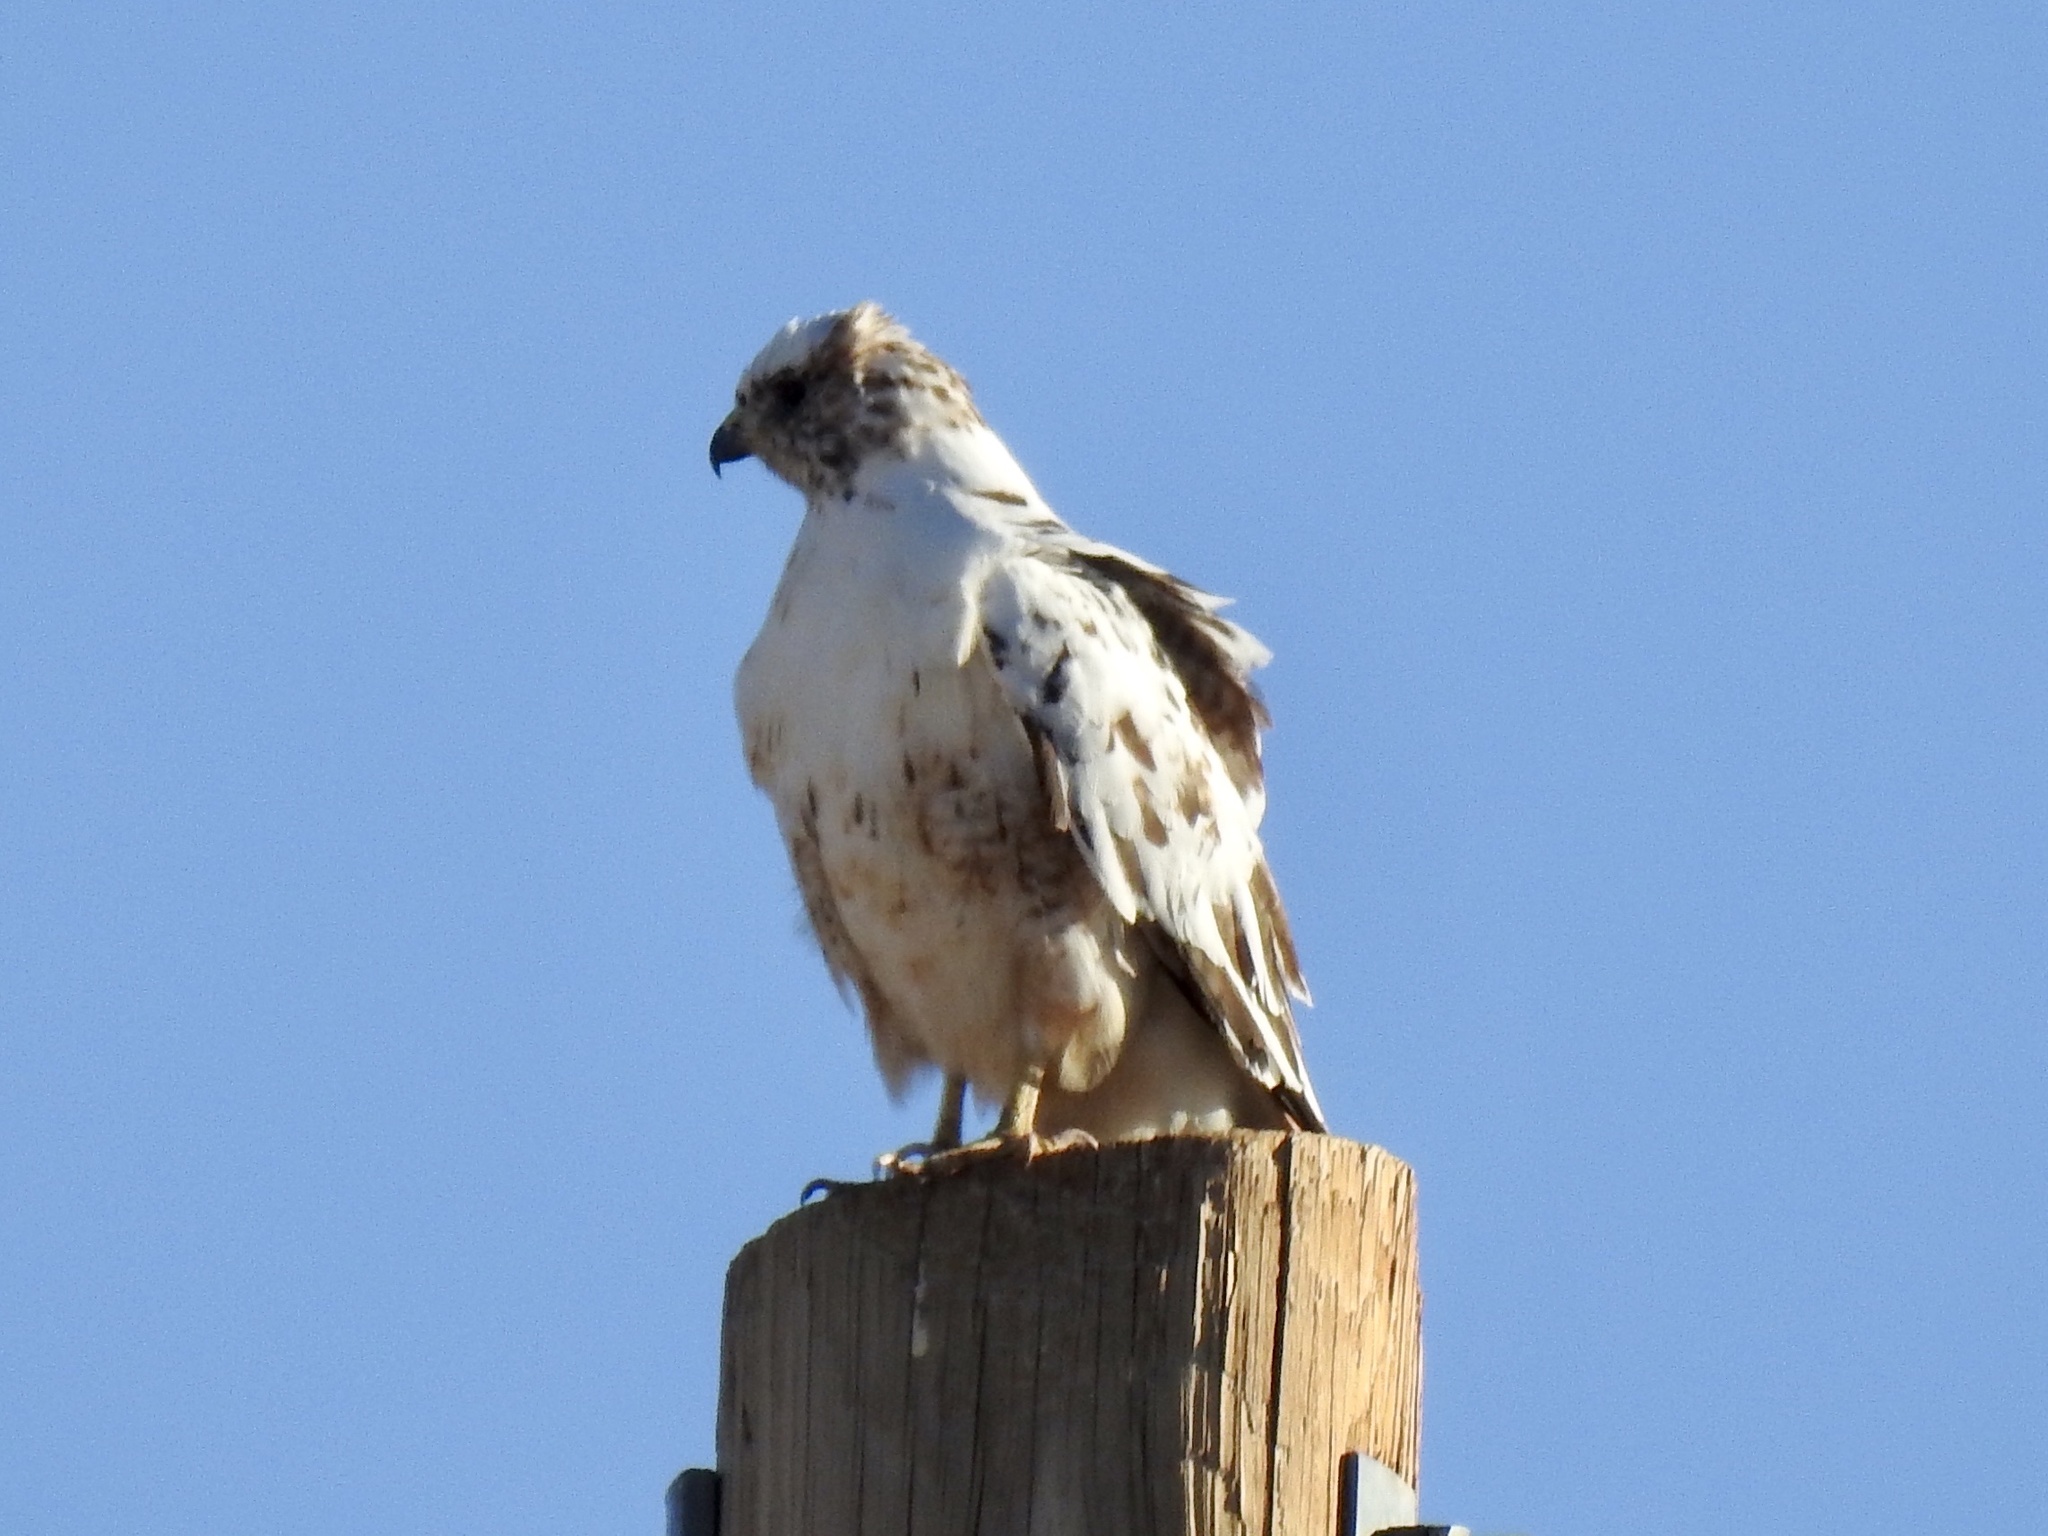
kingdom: Animalia
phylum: Chordata
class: Aves
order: Accipitriformes
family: Accipitridae
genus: Buteo
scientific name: Buteo jamaicensis
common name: Red-tailed hawk
